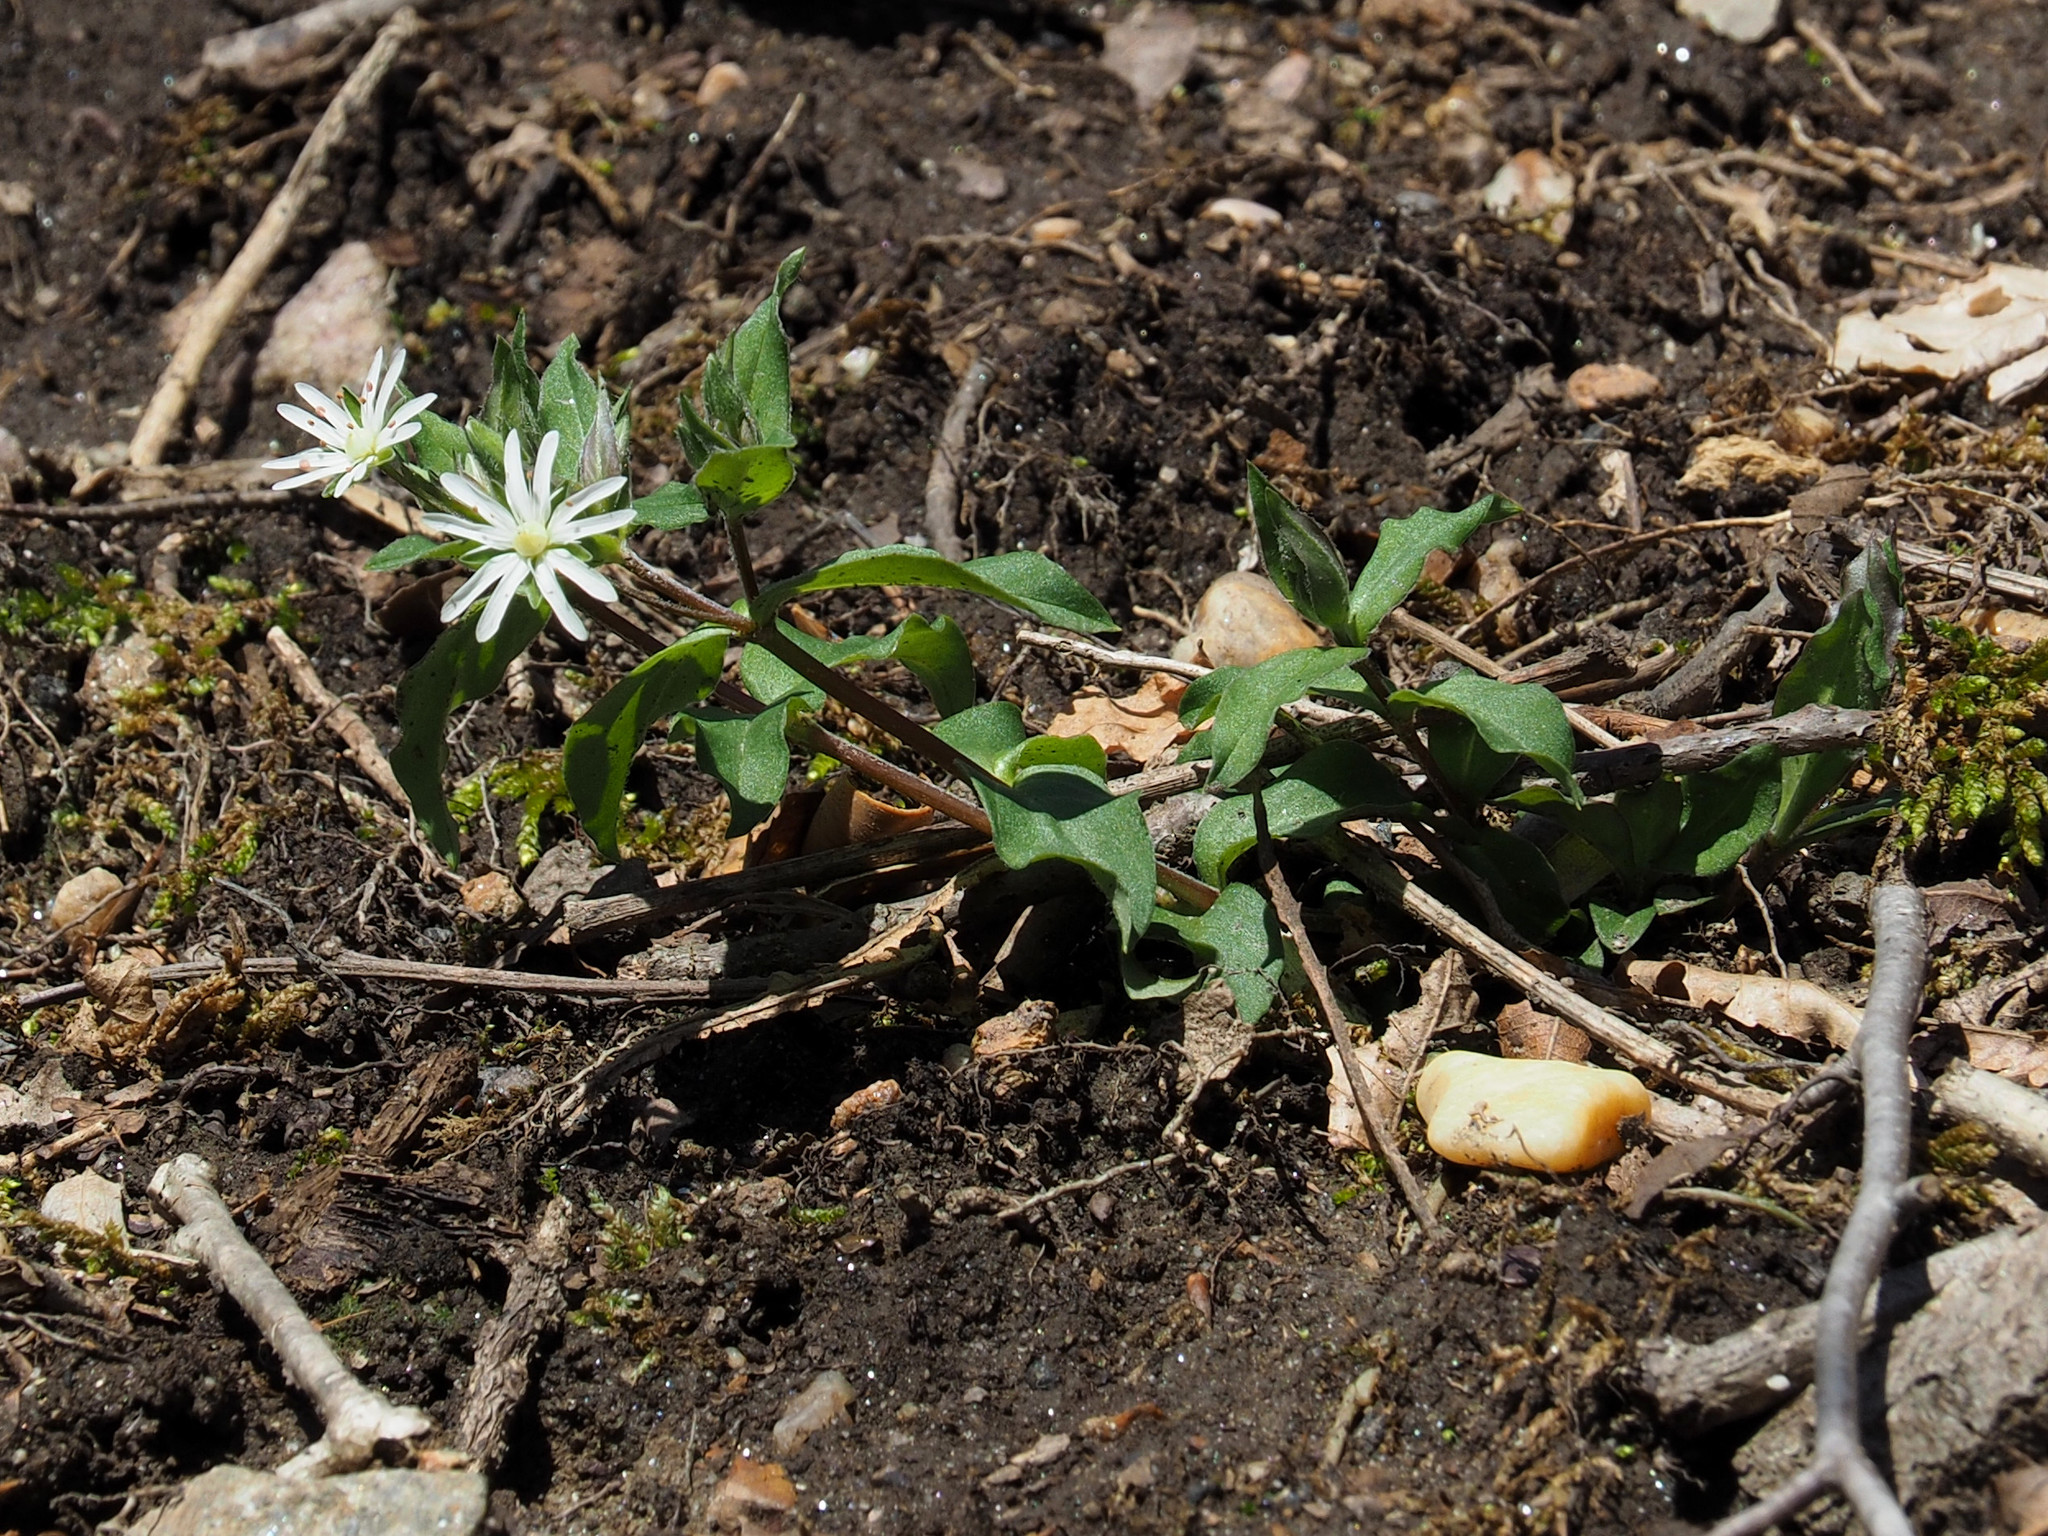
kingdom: Plantae
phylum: Tracheophyta
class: Magnoliopsida
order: Caryophyllales
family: Caryophyllaceae
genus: Stellaria
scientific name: Stellaria pubera
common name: Star chickweed
